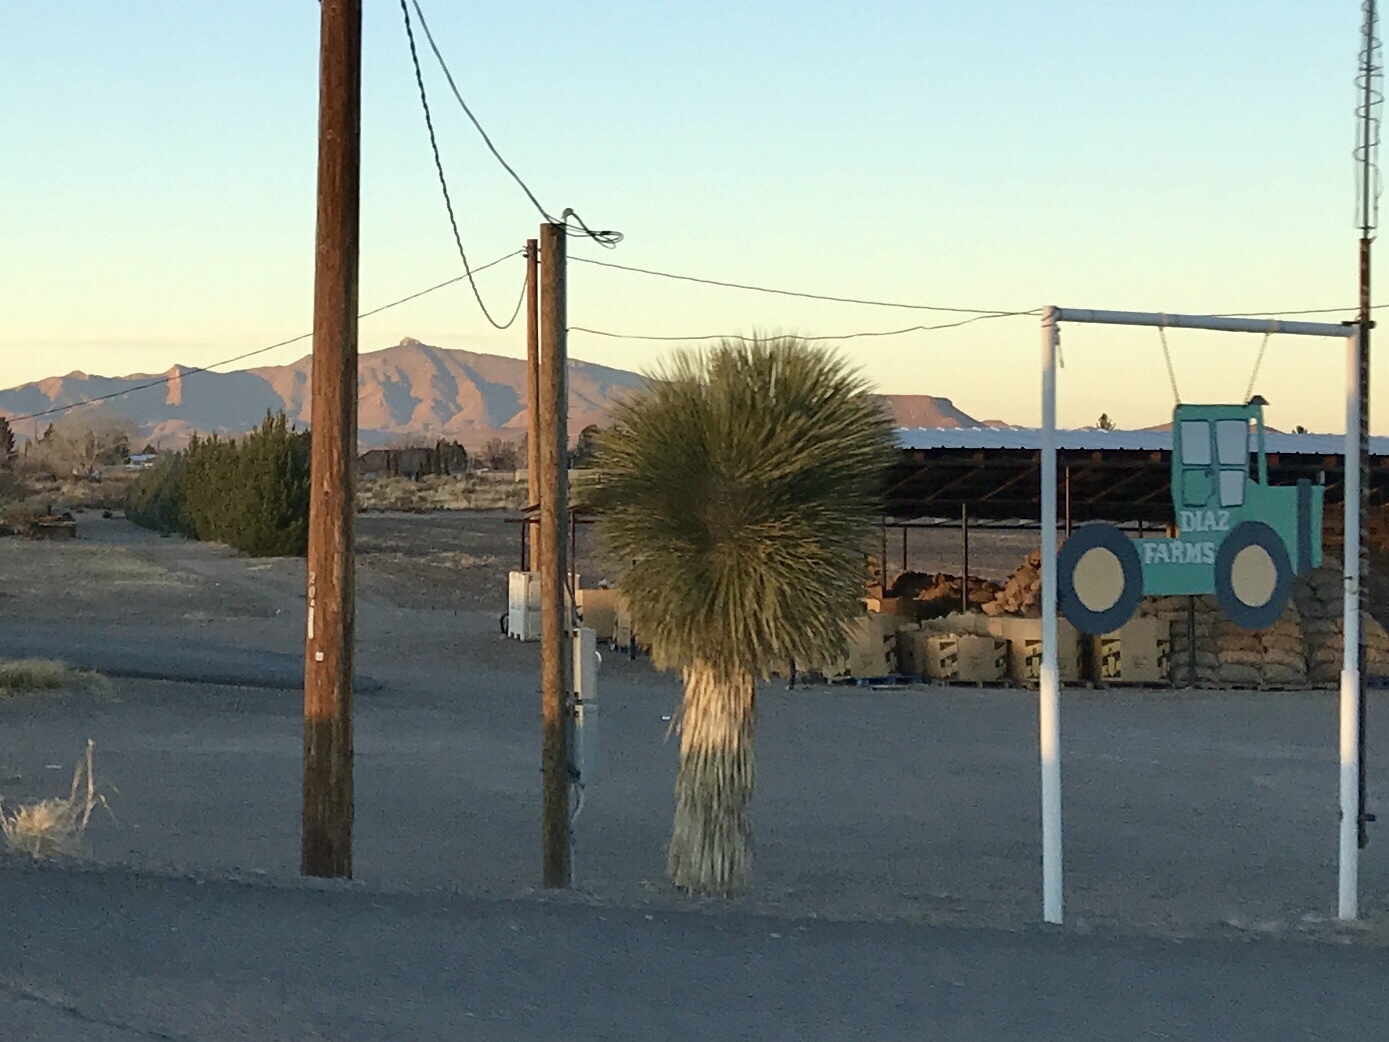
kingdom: Plantae
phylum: Tracheophyta
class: Liliopsida
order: Asparagales
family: Asparagaceae
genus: Yucca
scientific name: Yucca elata
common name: Palmella
